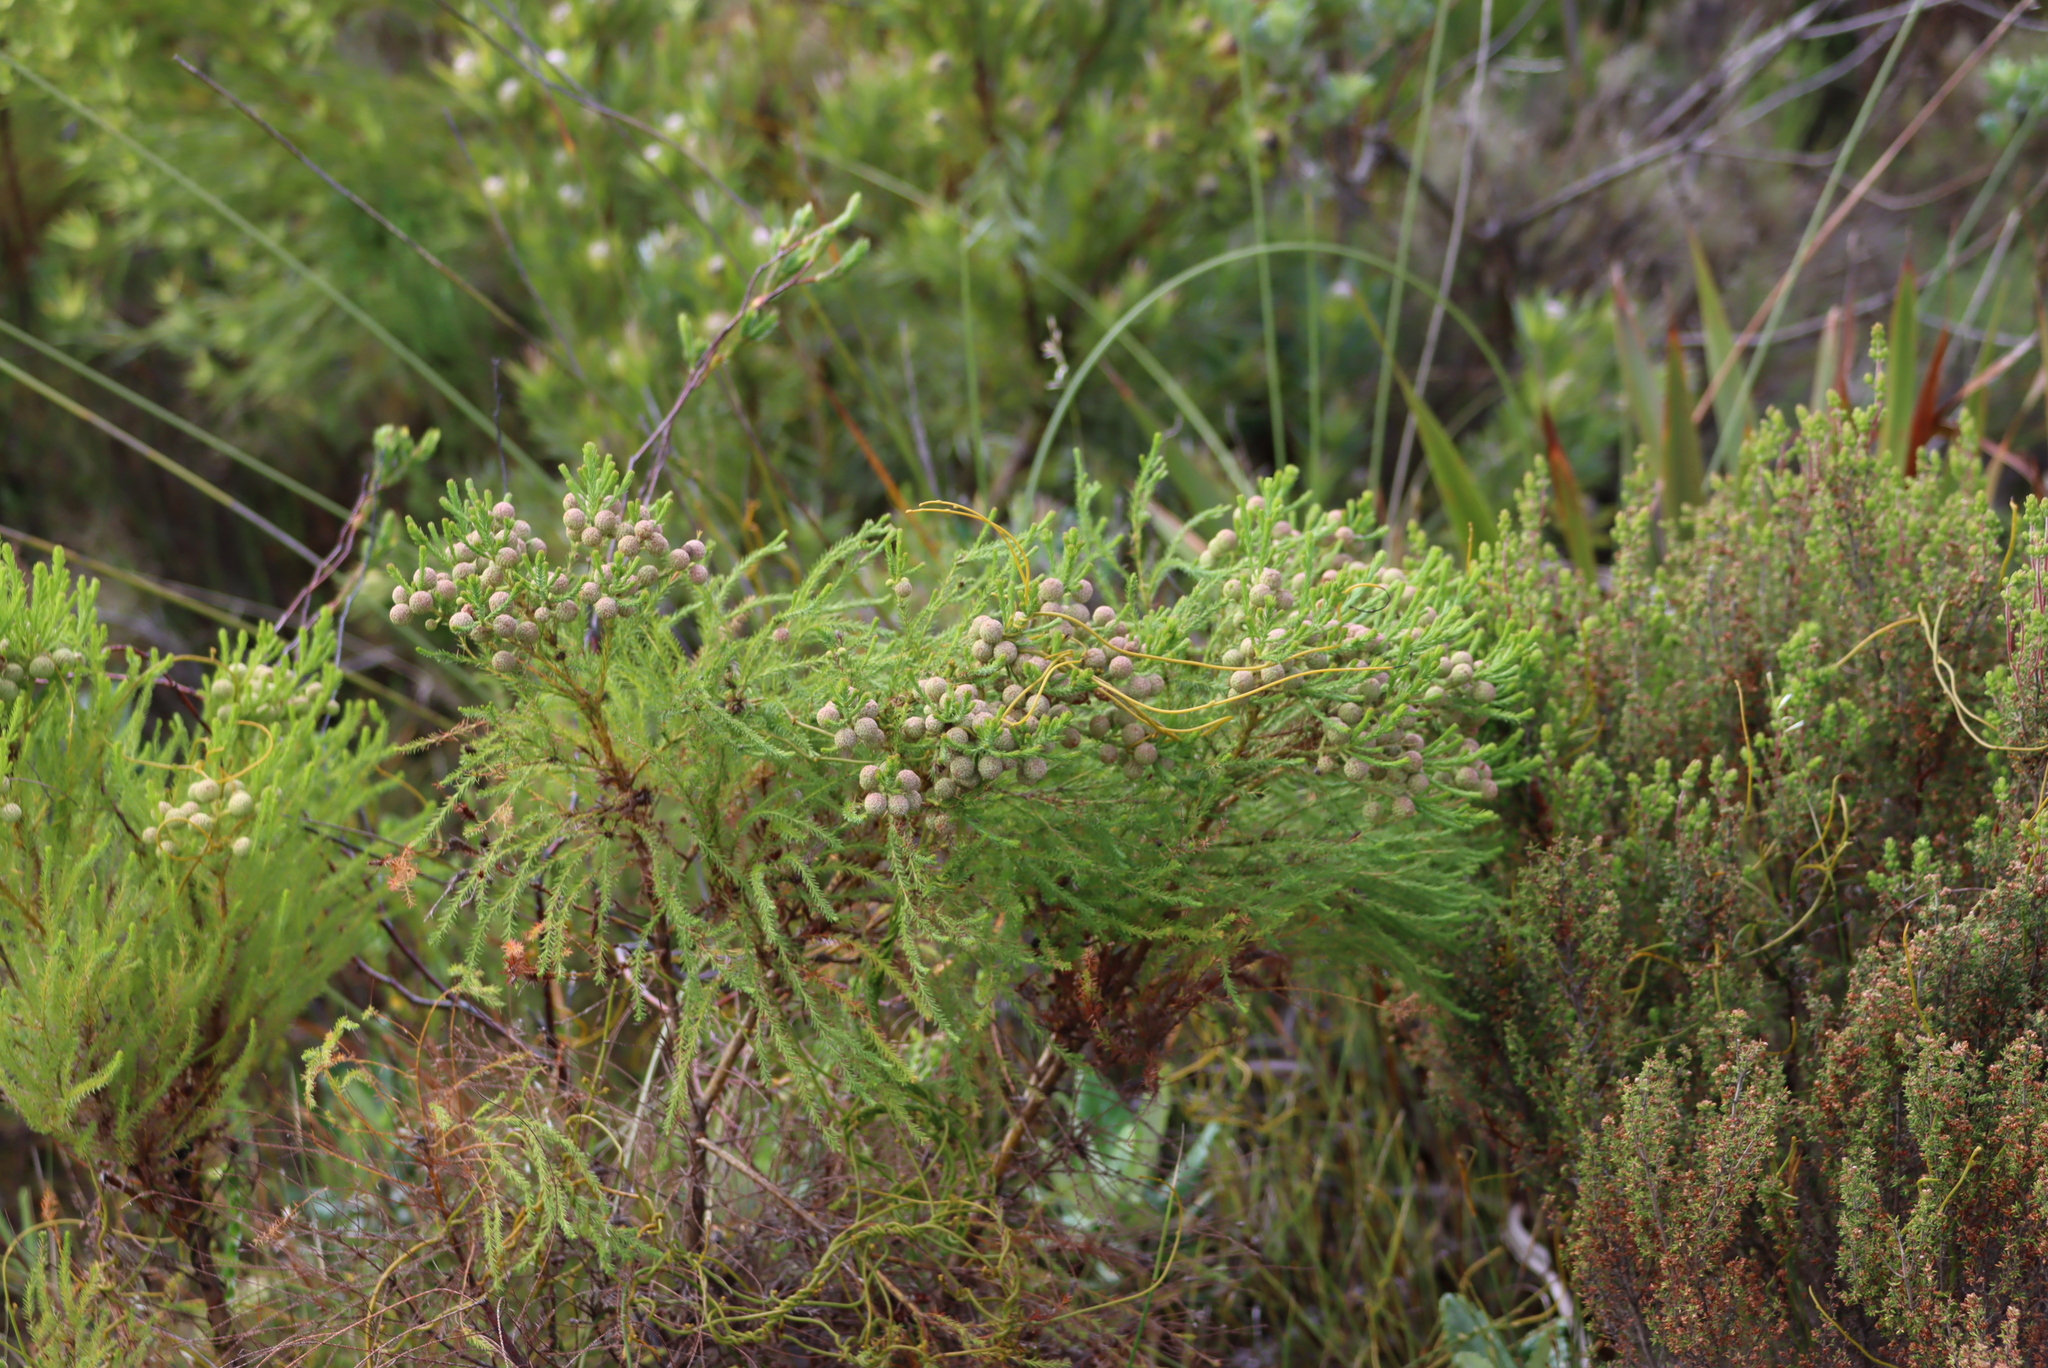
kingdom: Plantae
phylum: Tracheophyta
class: Magnoliopsida
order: Bruniales
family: Bruniaceae
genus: Berzelia
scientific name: Berzelia lanuginosa
